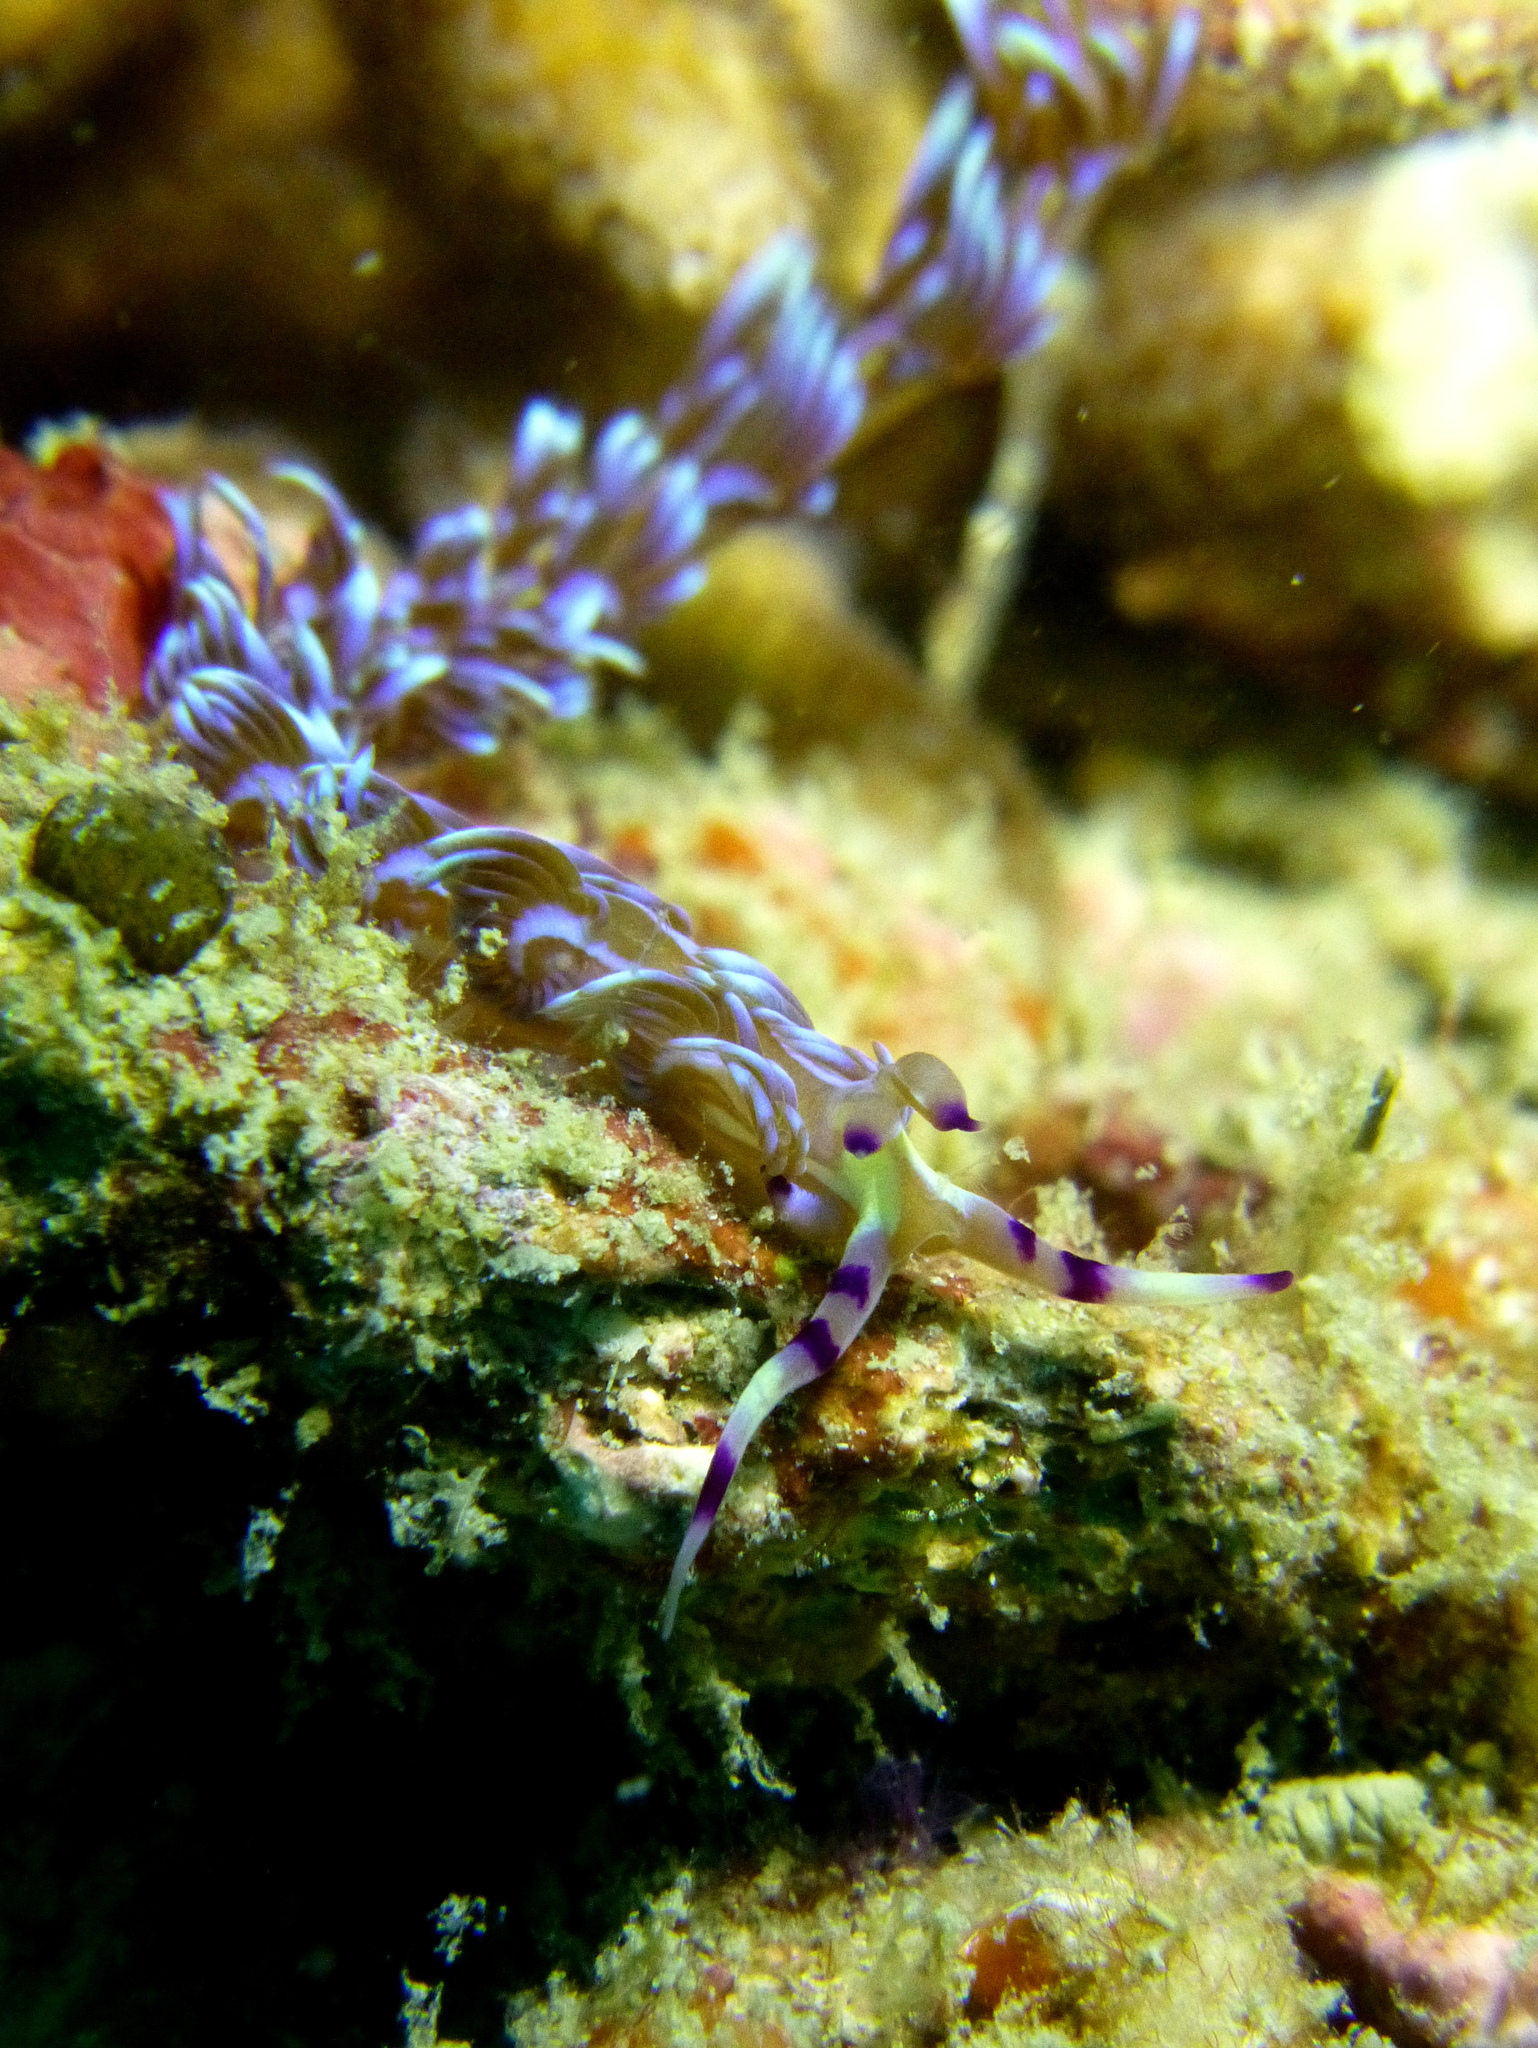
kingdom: Animalia
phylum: Mollusca
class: Gastropoda
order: Nudibranchia
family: Facelinidae
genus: Pteraeolidia
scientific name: Pteraeolidia semperi
